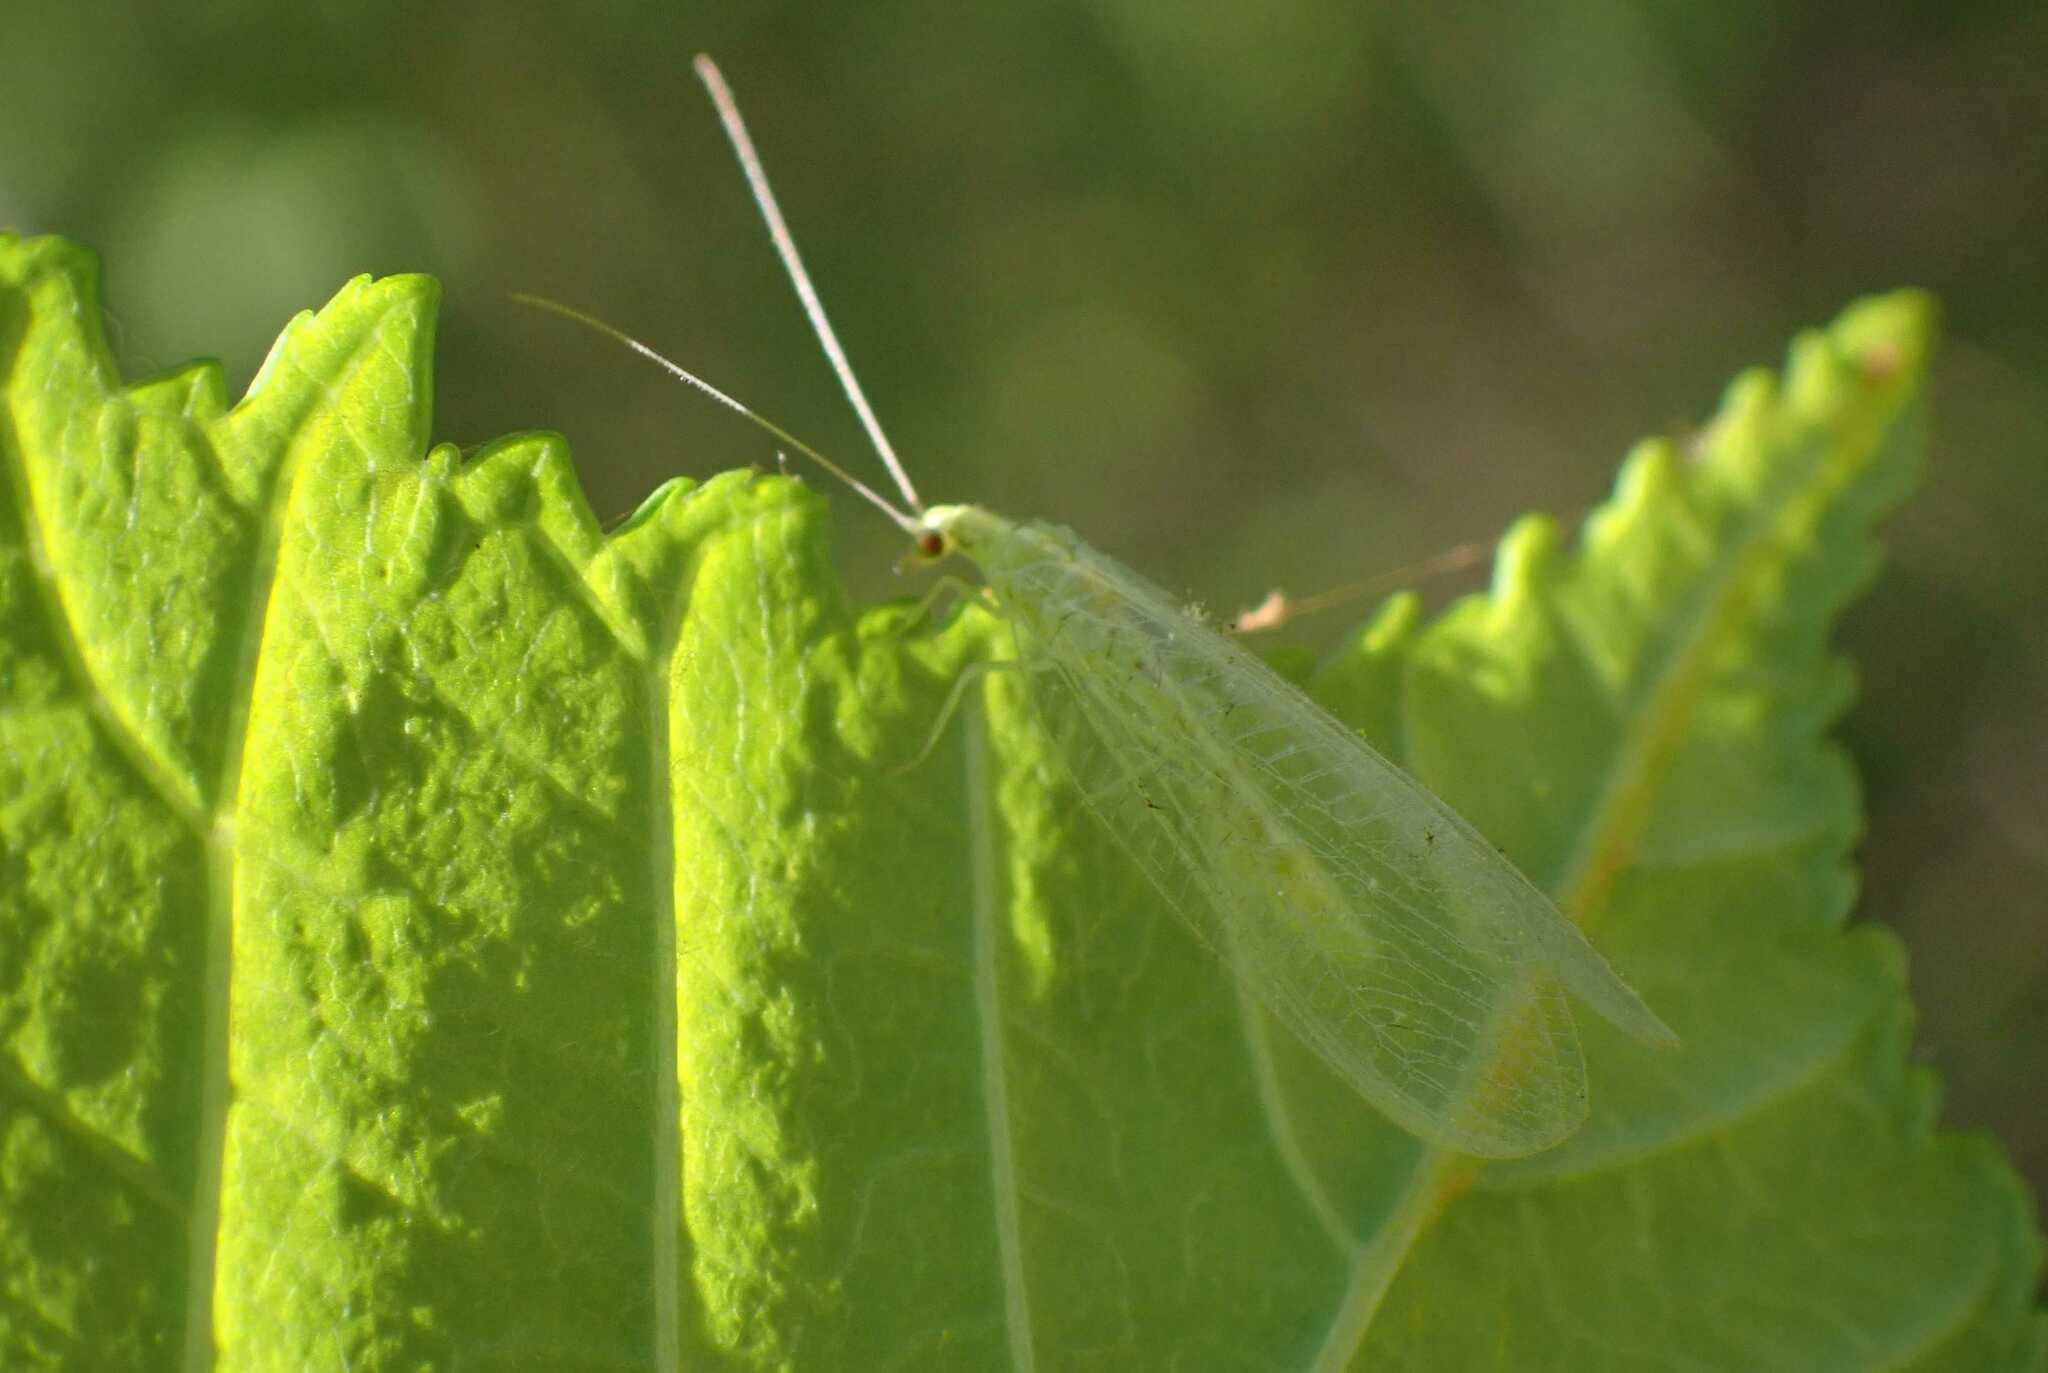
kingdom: Animalia
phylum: Arthropoda
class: Insecta
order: Neuroptera
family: Chrysopidae
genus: Chrysoperla
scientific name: Chrysoperla
